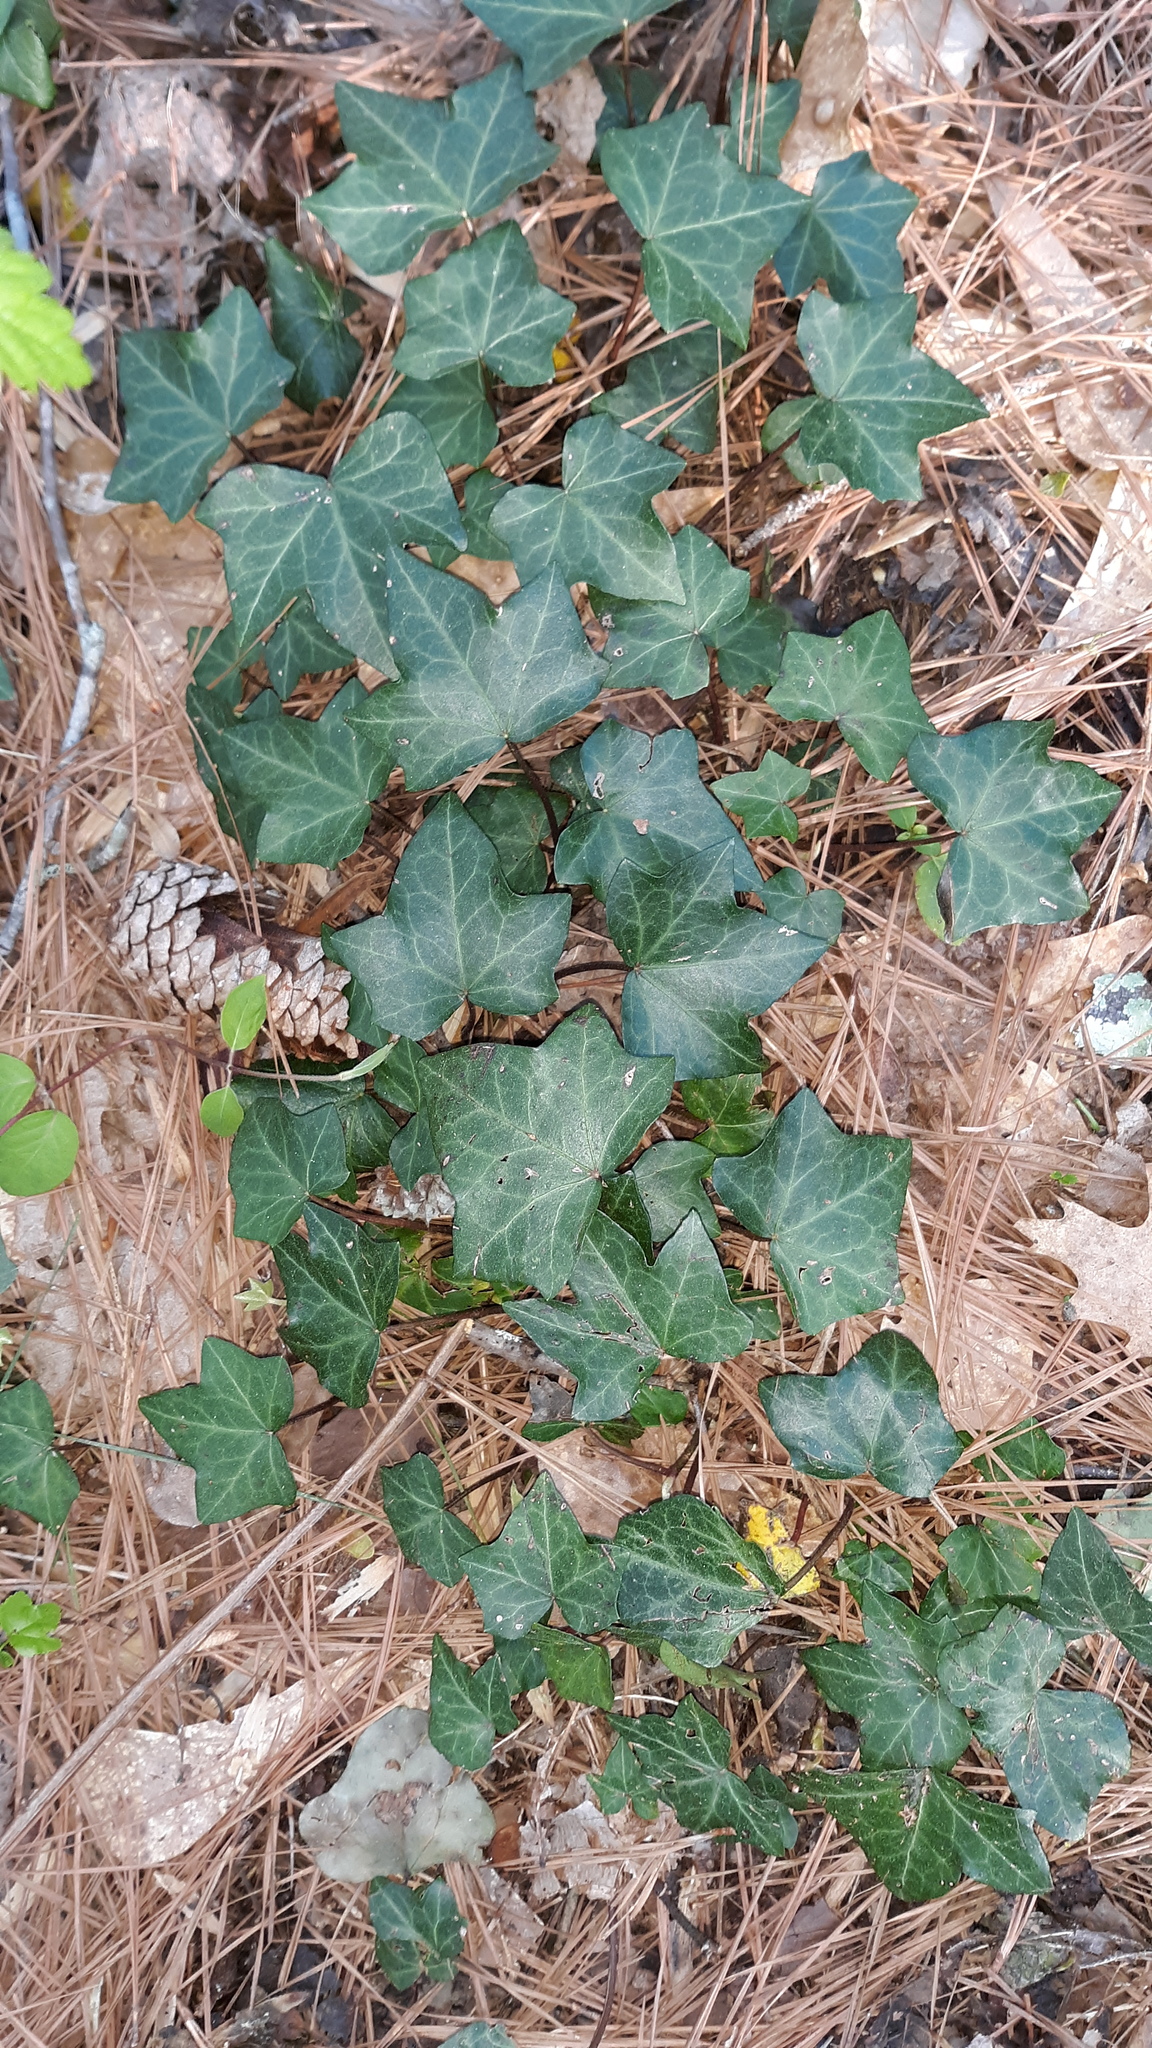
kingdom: Plantae
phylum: Tracheophyta
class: Magnoliopsida
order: Apiales
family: Araliaceae
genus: Hedera
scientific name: Hedera helix
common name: Ivy
